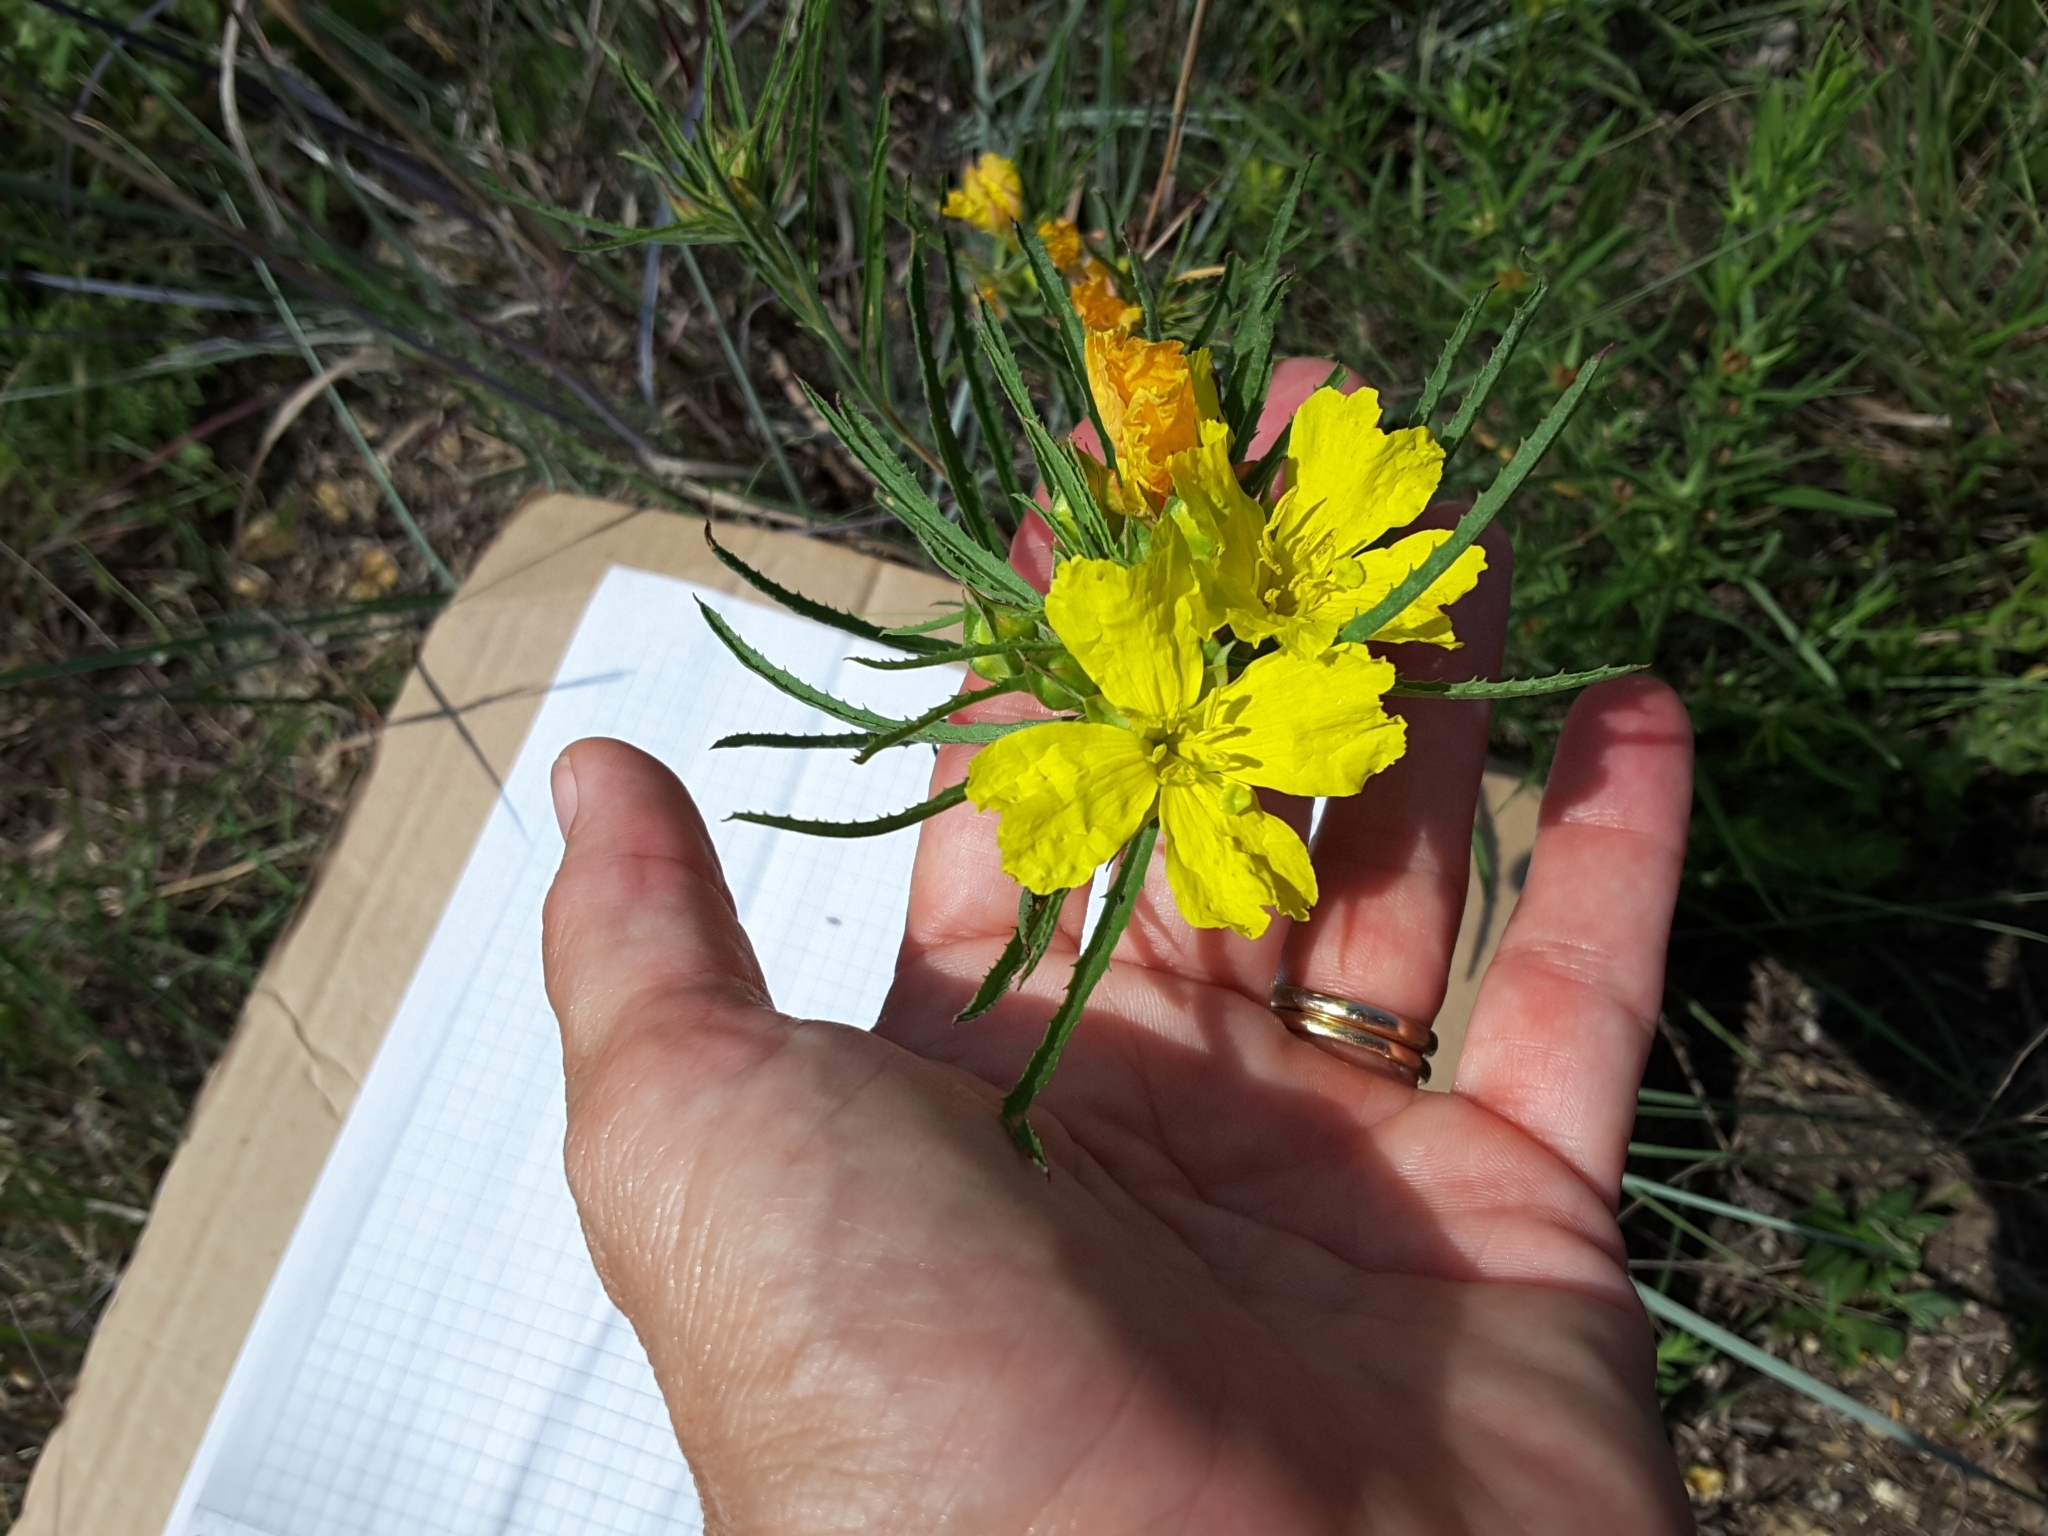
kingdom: Plantae
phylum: Tracheophyta
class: Magnoliopsida
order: Myrtales
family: Onagraceae
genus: Oenothera
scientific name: Oenothera
